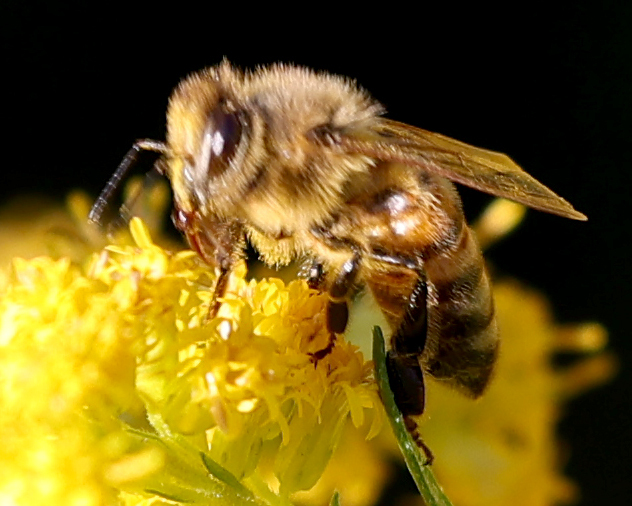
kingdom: Animalia
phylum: Arthropoda
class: Insecta
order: Hymenoptera
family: Apidae
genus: Apis
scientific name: Apis mellifera
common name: Honey bee
